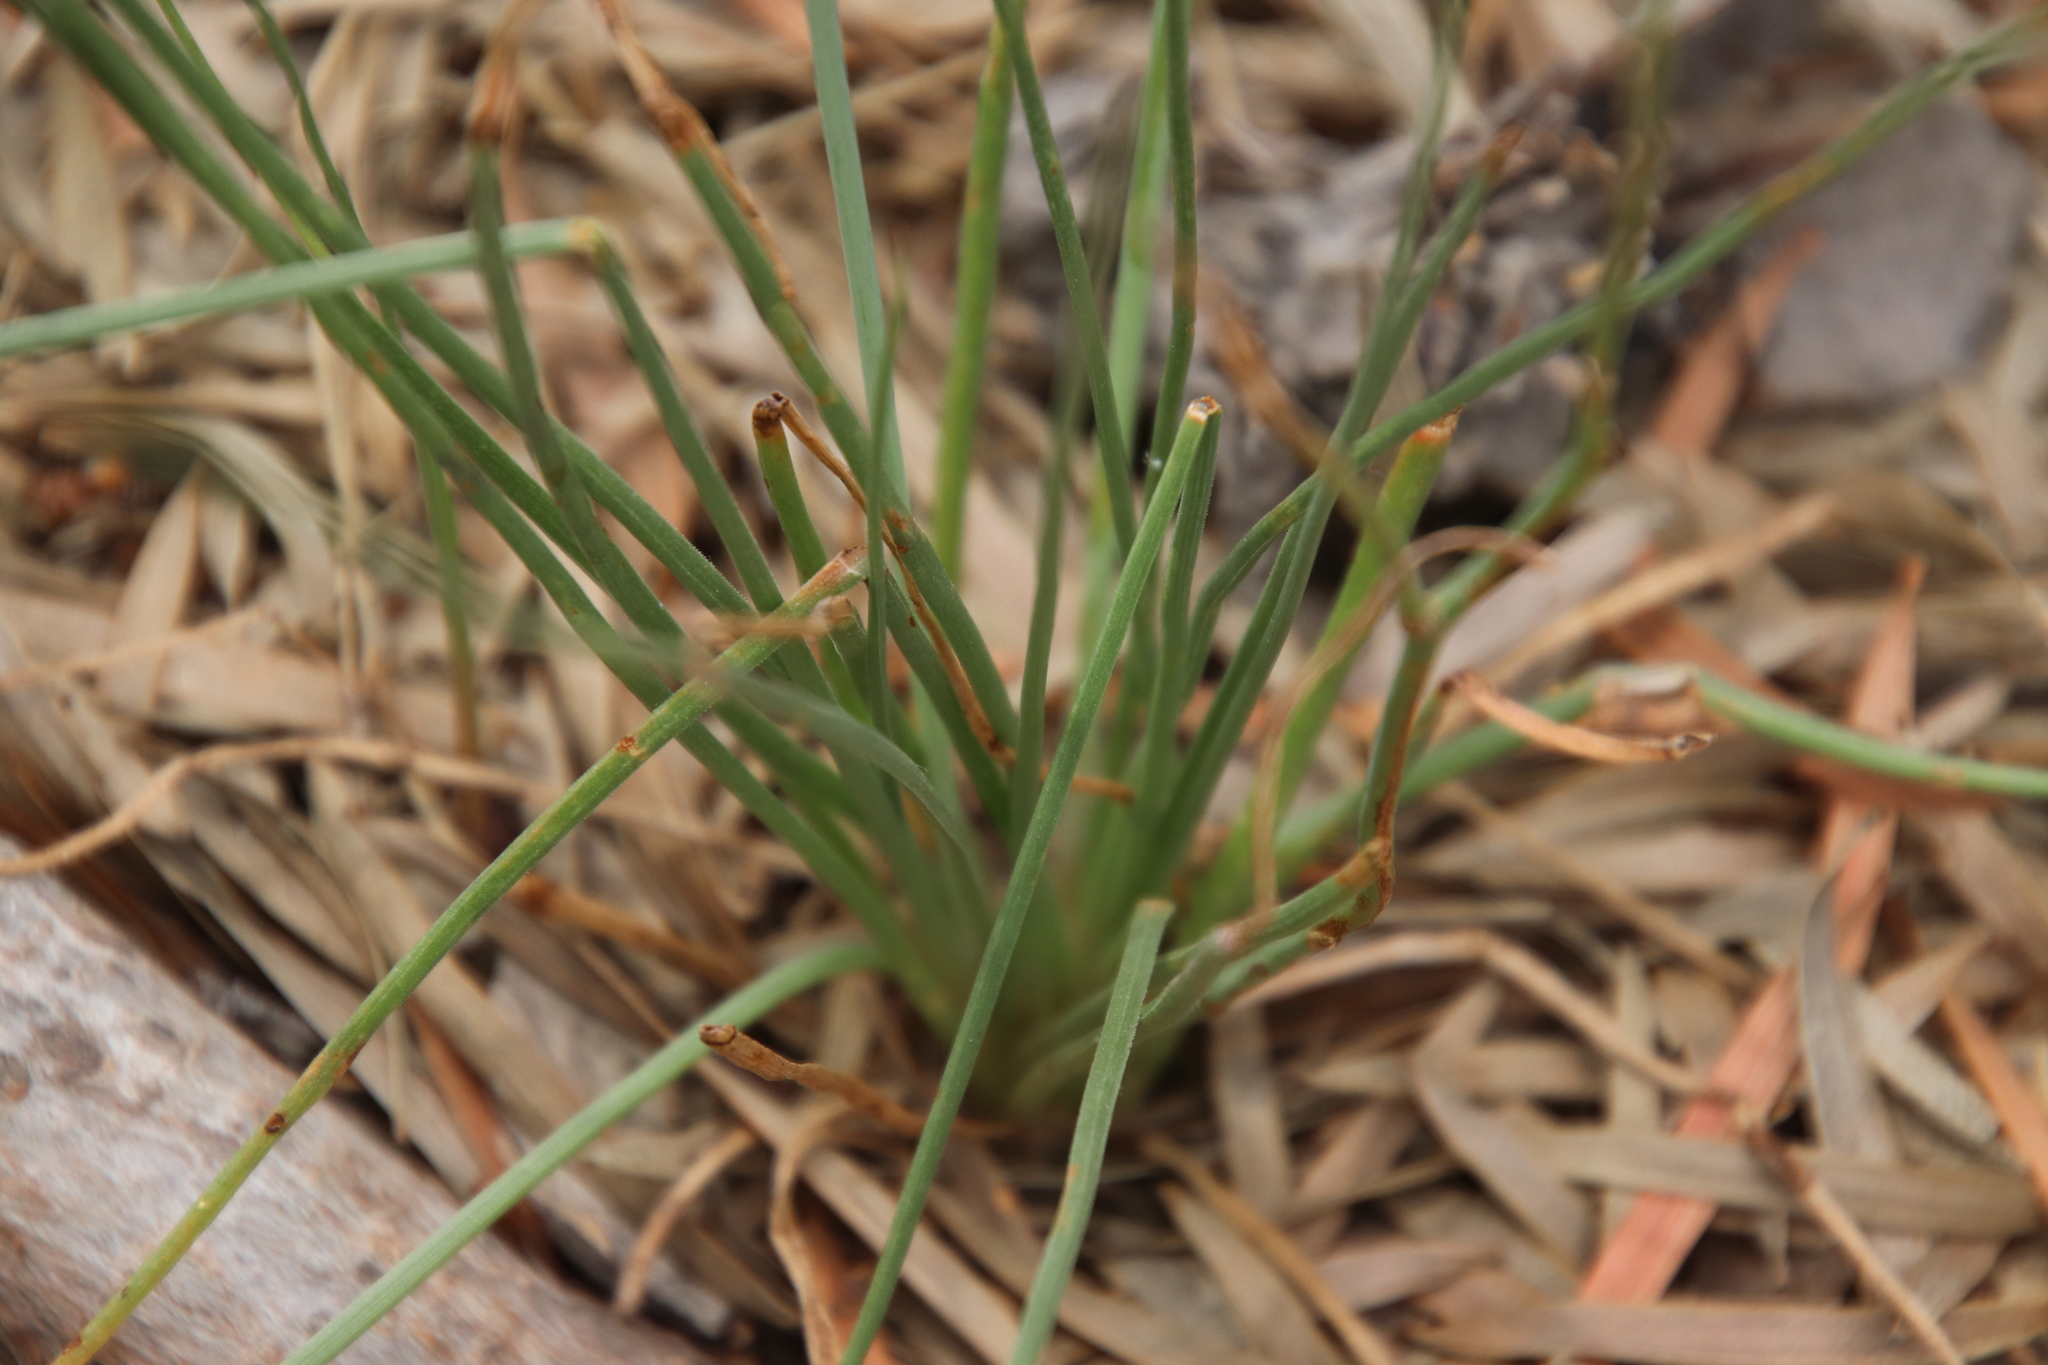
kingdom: Plantae
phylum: Tracheophyta
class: Liliopsida
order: Asparagales
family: Asphodelaceae
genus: Asphodelus
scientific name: Asphodelus fistulosus
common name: Onionweed
